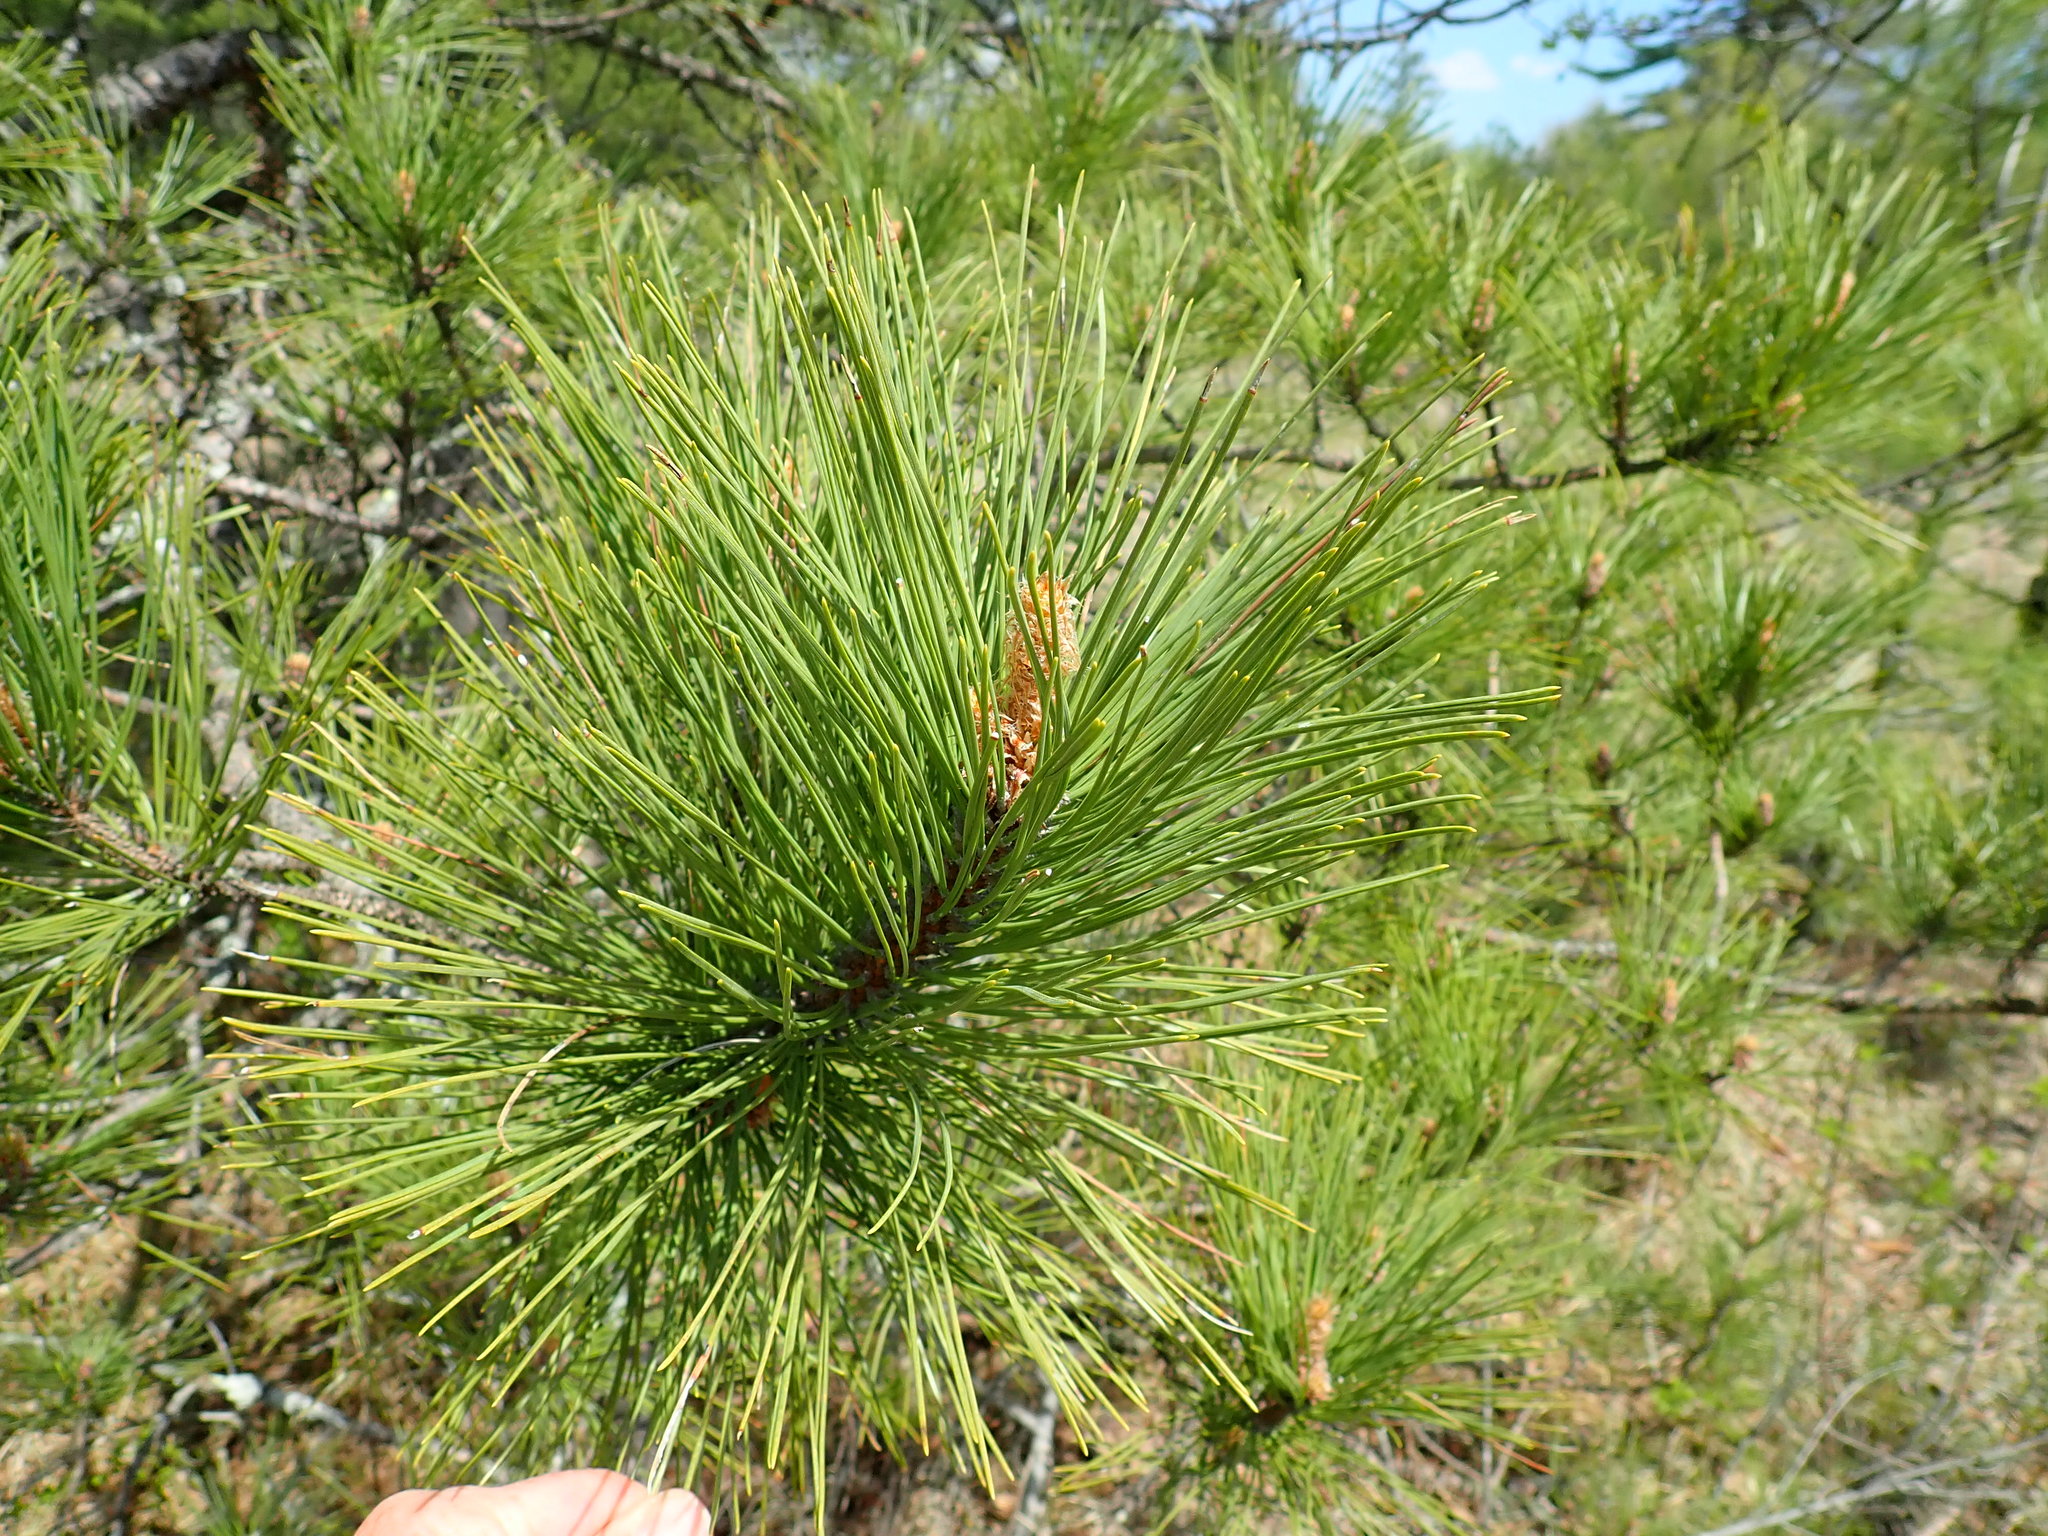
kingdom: Plantae
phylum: Tracheophyta
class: Pinopsida
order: Pinales
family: Pinaceae
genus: Pinus
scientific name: Pinus resinosa
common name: Norway pine
